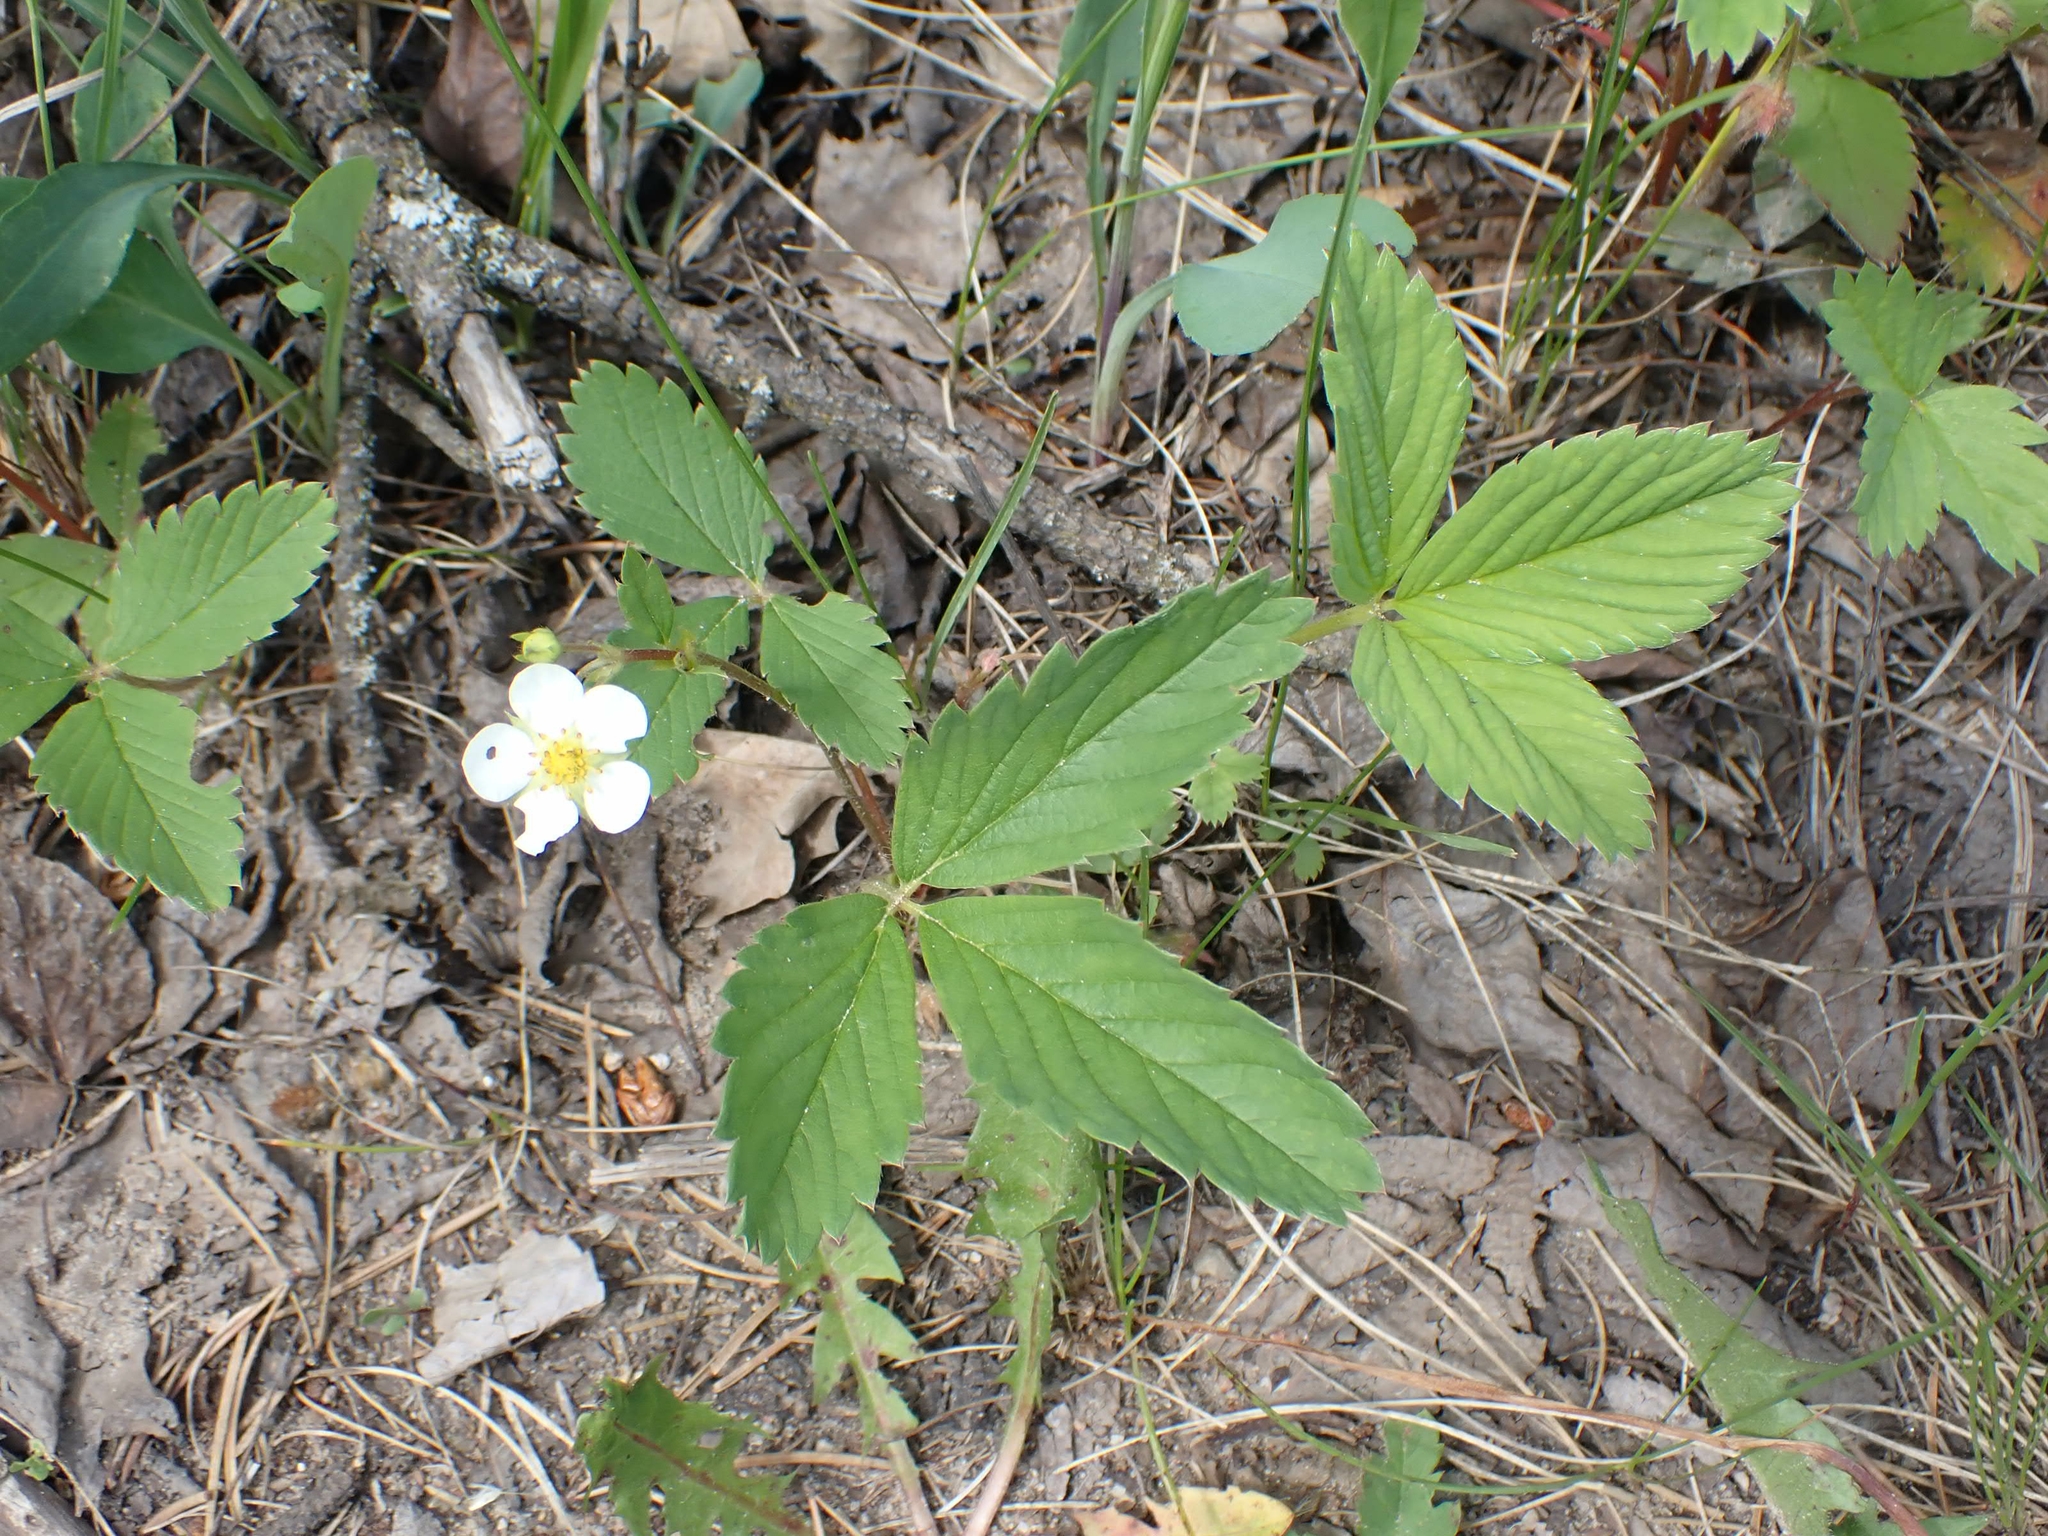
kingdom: Plantae
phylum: Tracheophyta
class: Magnoliopsida
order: Rosales
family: Rosaceae
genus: Fragaria
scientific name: Fragaria virginiana
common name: Thickleaved wild strawberry
